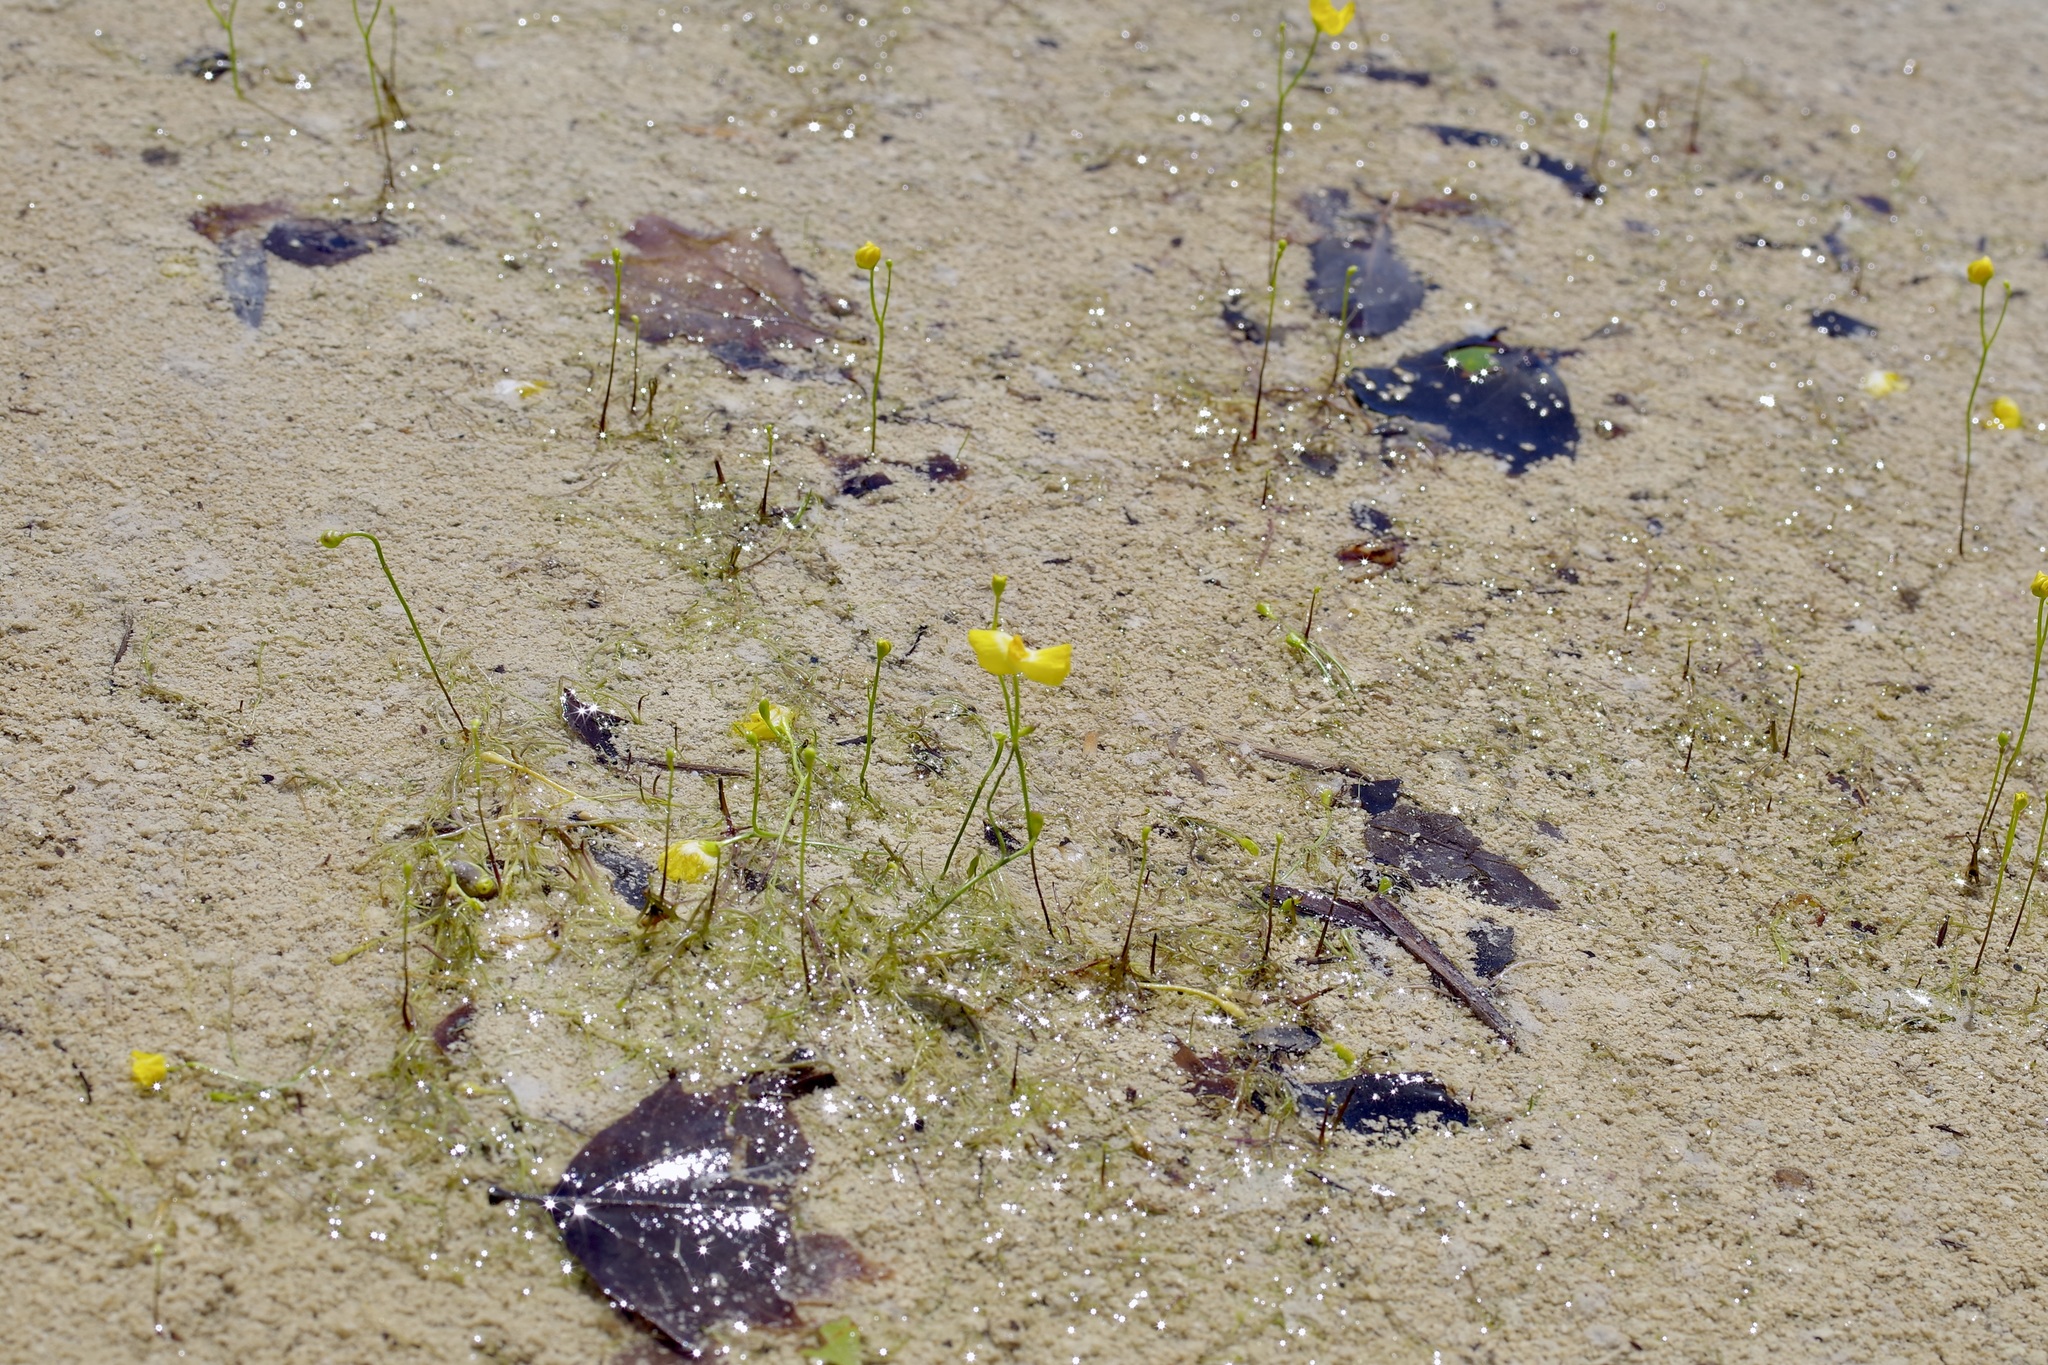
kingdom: Plantae
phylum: Tracheophyta
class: Magnoliopsida
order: Lamiales
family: Lentibulariaceae
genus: Utricularia
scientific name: Utricularia gibba
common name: Humped bladderwort
